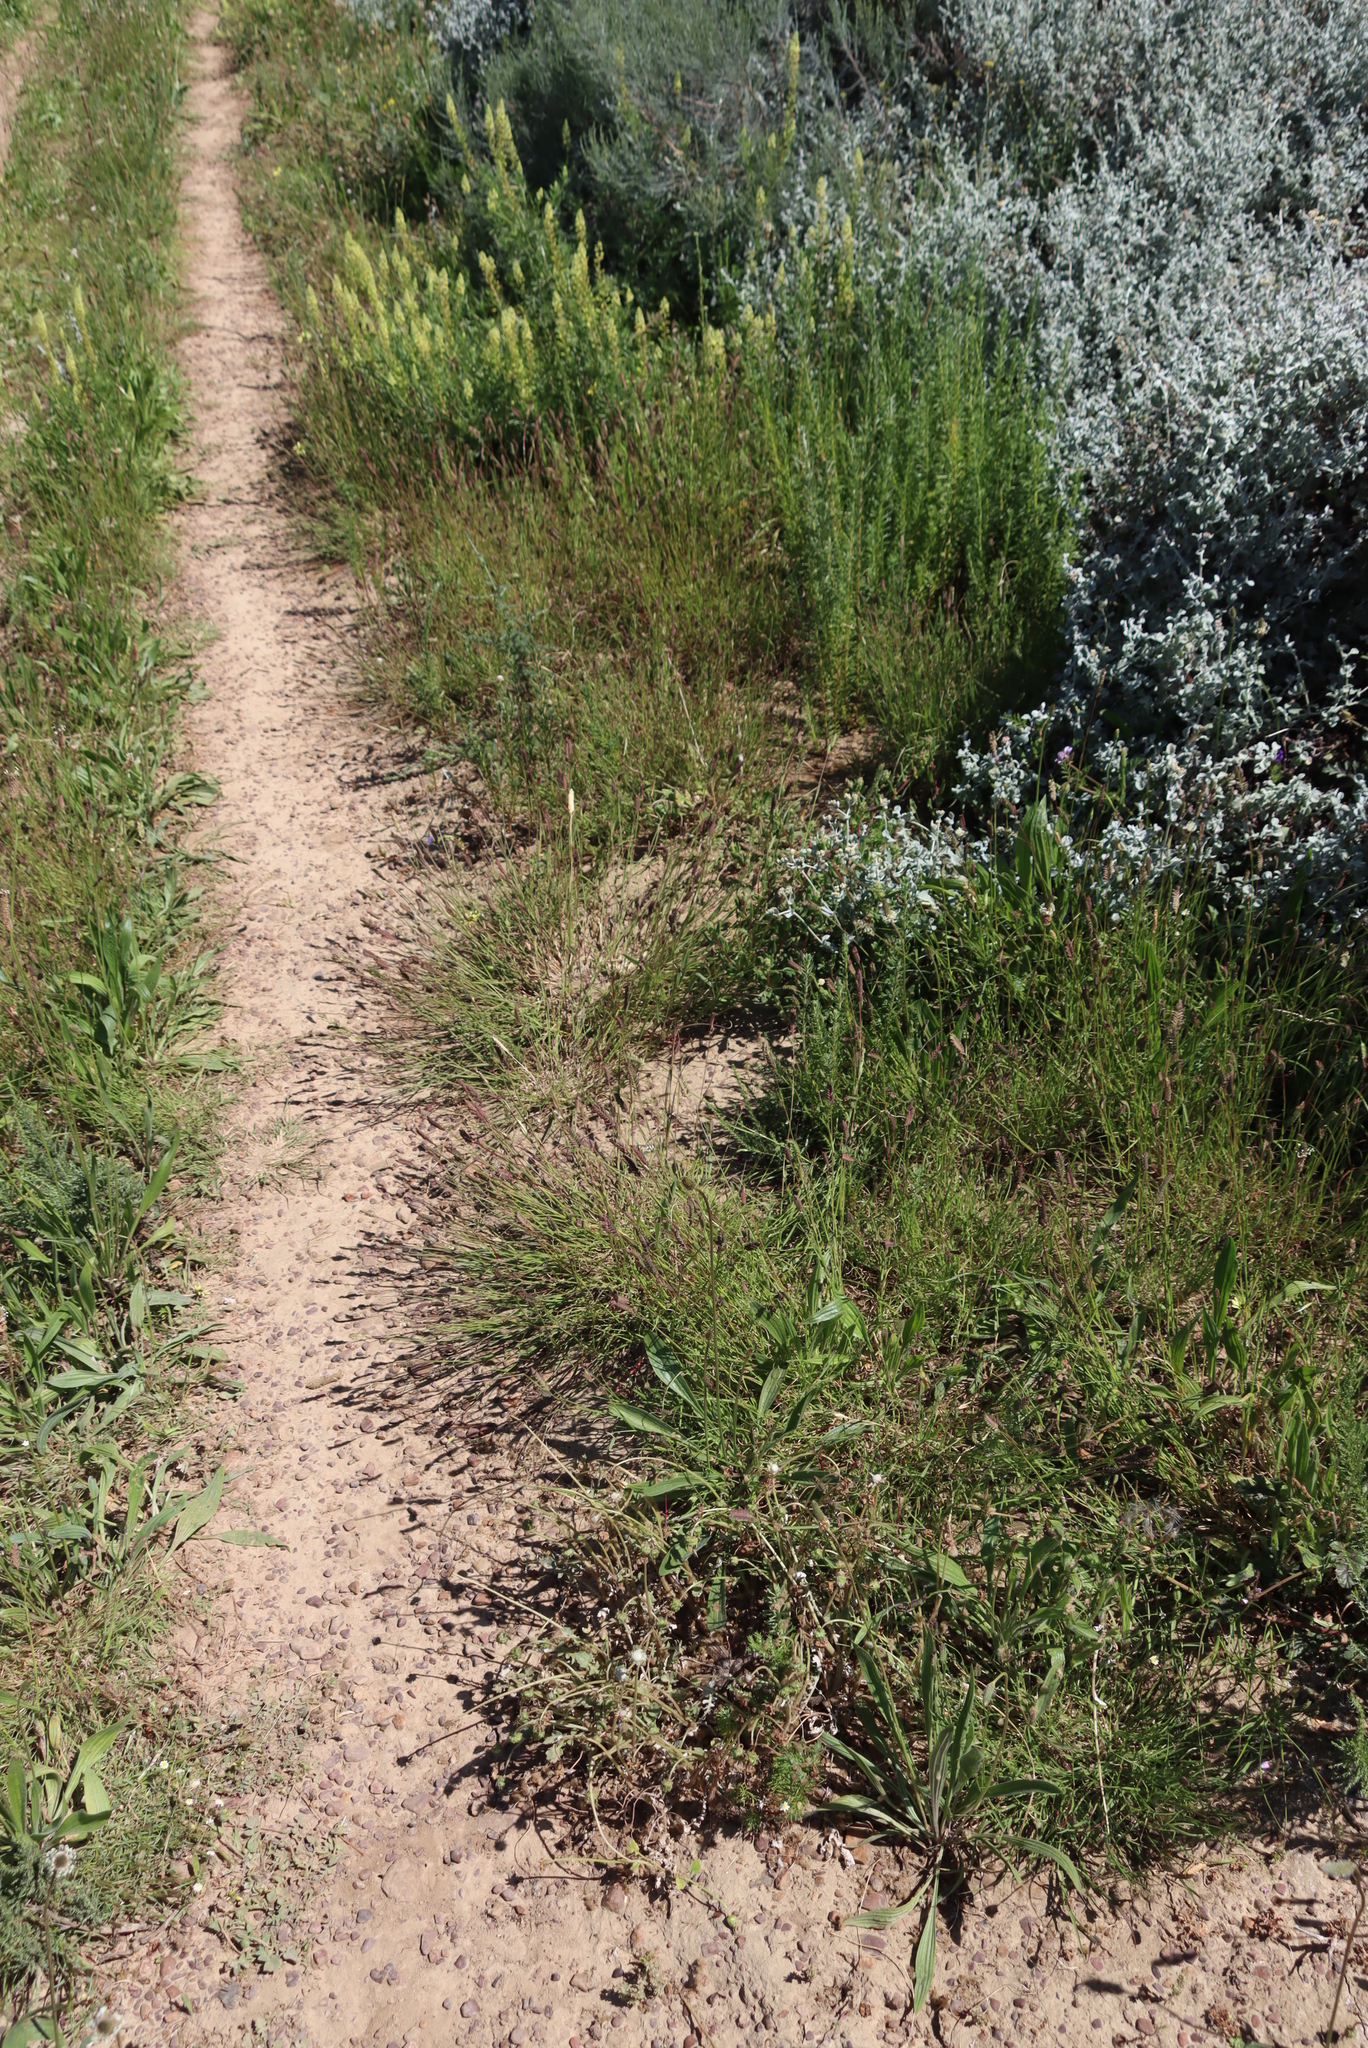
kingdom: Plantae
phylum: Tracheophyta
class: Magnoliopsida
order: Brassicales
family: Resedaceae
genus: Reseda
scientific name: Reseda lutea
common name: Wild mignonette
